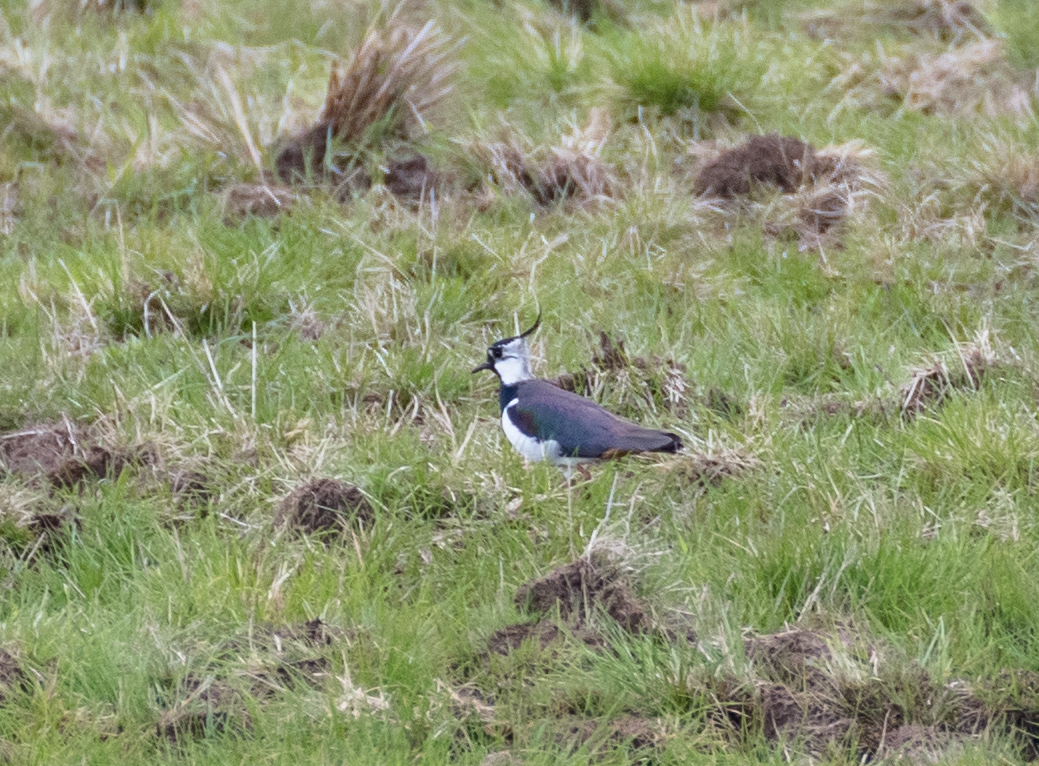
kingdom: Animalia
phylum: Chordata
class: Aves
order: Charadriiformes
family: Charadriidae
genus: Vanellus
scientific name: Vanellus vanellus
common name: Northern lapwing
